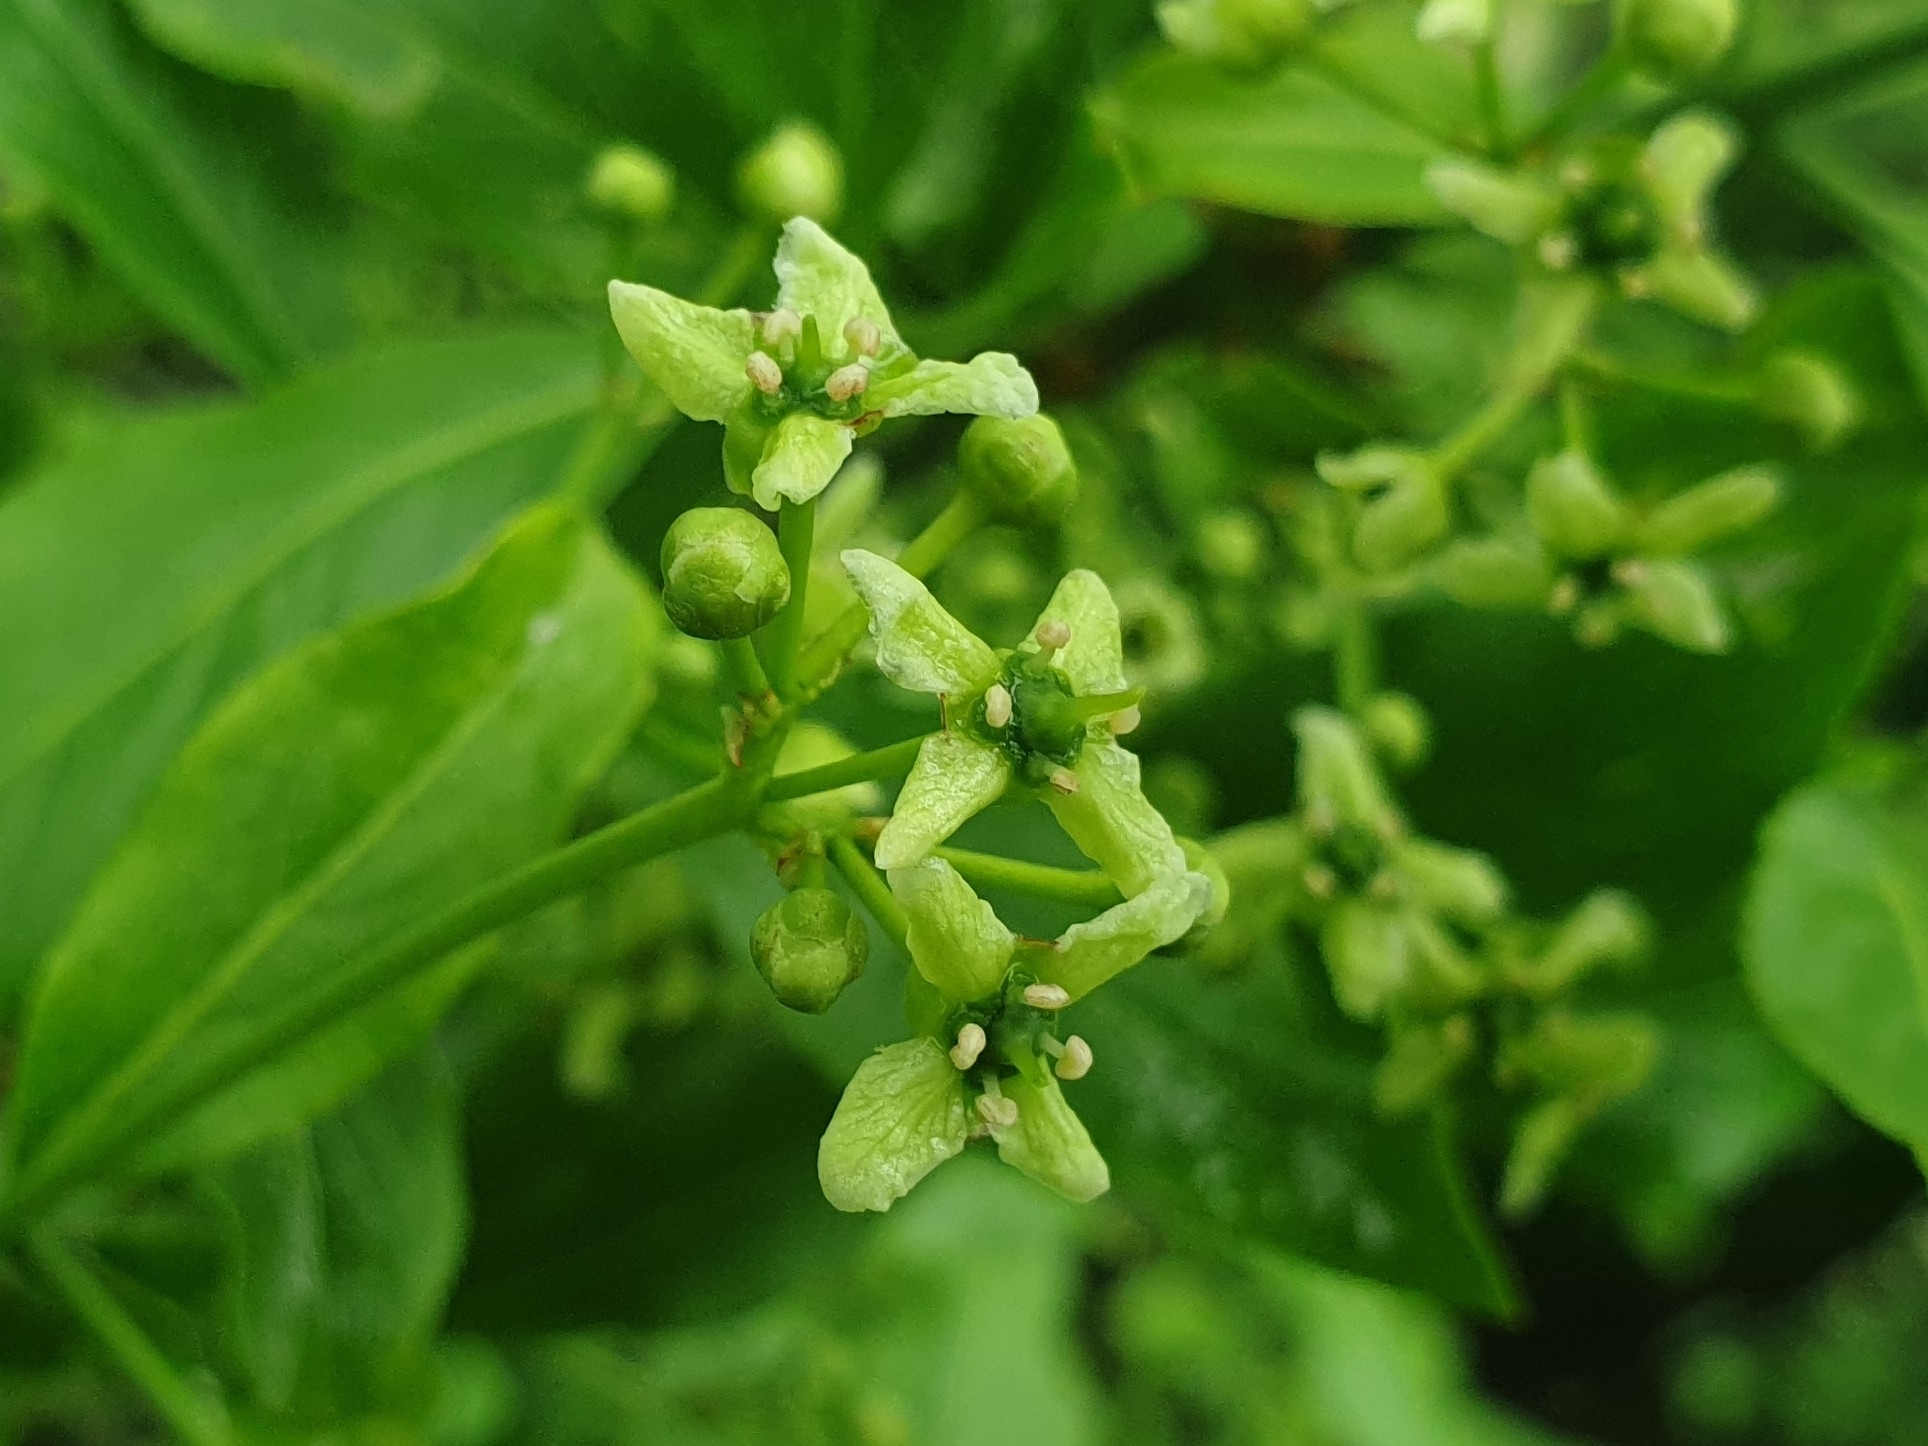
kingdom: Plantae
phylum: Tracheophyta
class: Magnoliopsida
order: Celastrales
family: Celastraceae
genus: Euonymus
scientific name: Euonymus europaeus
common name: Spindle
